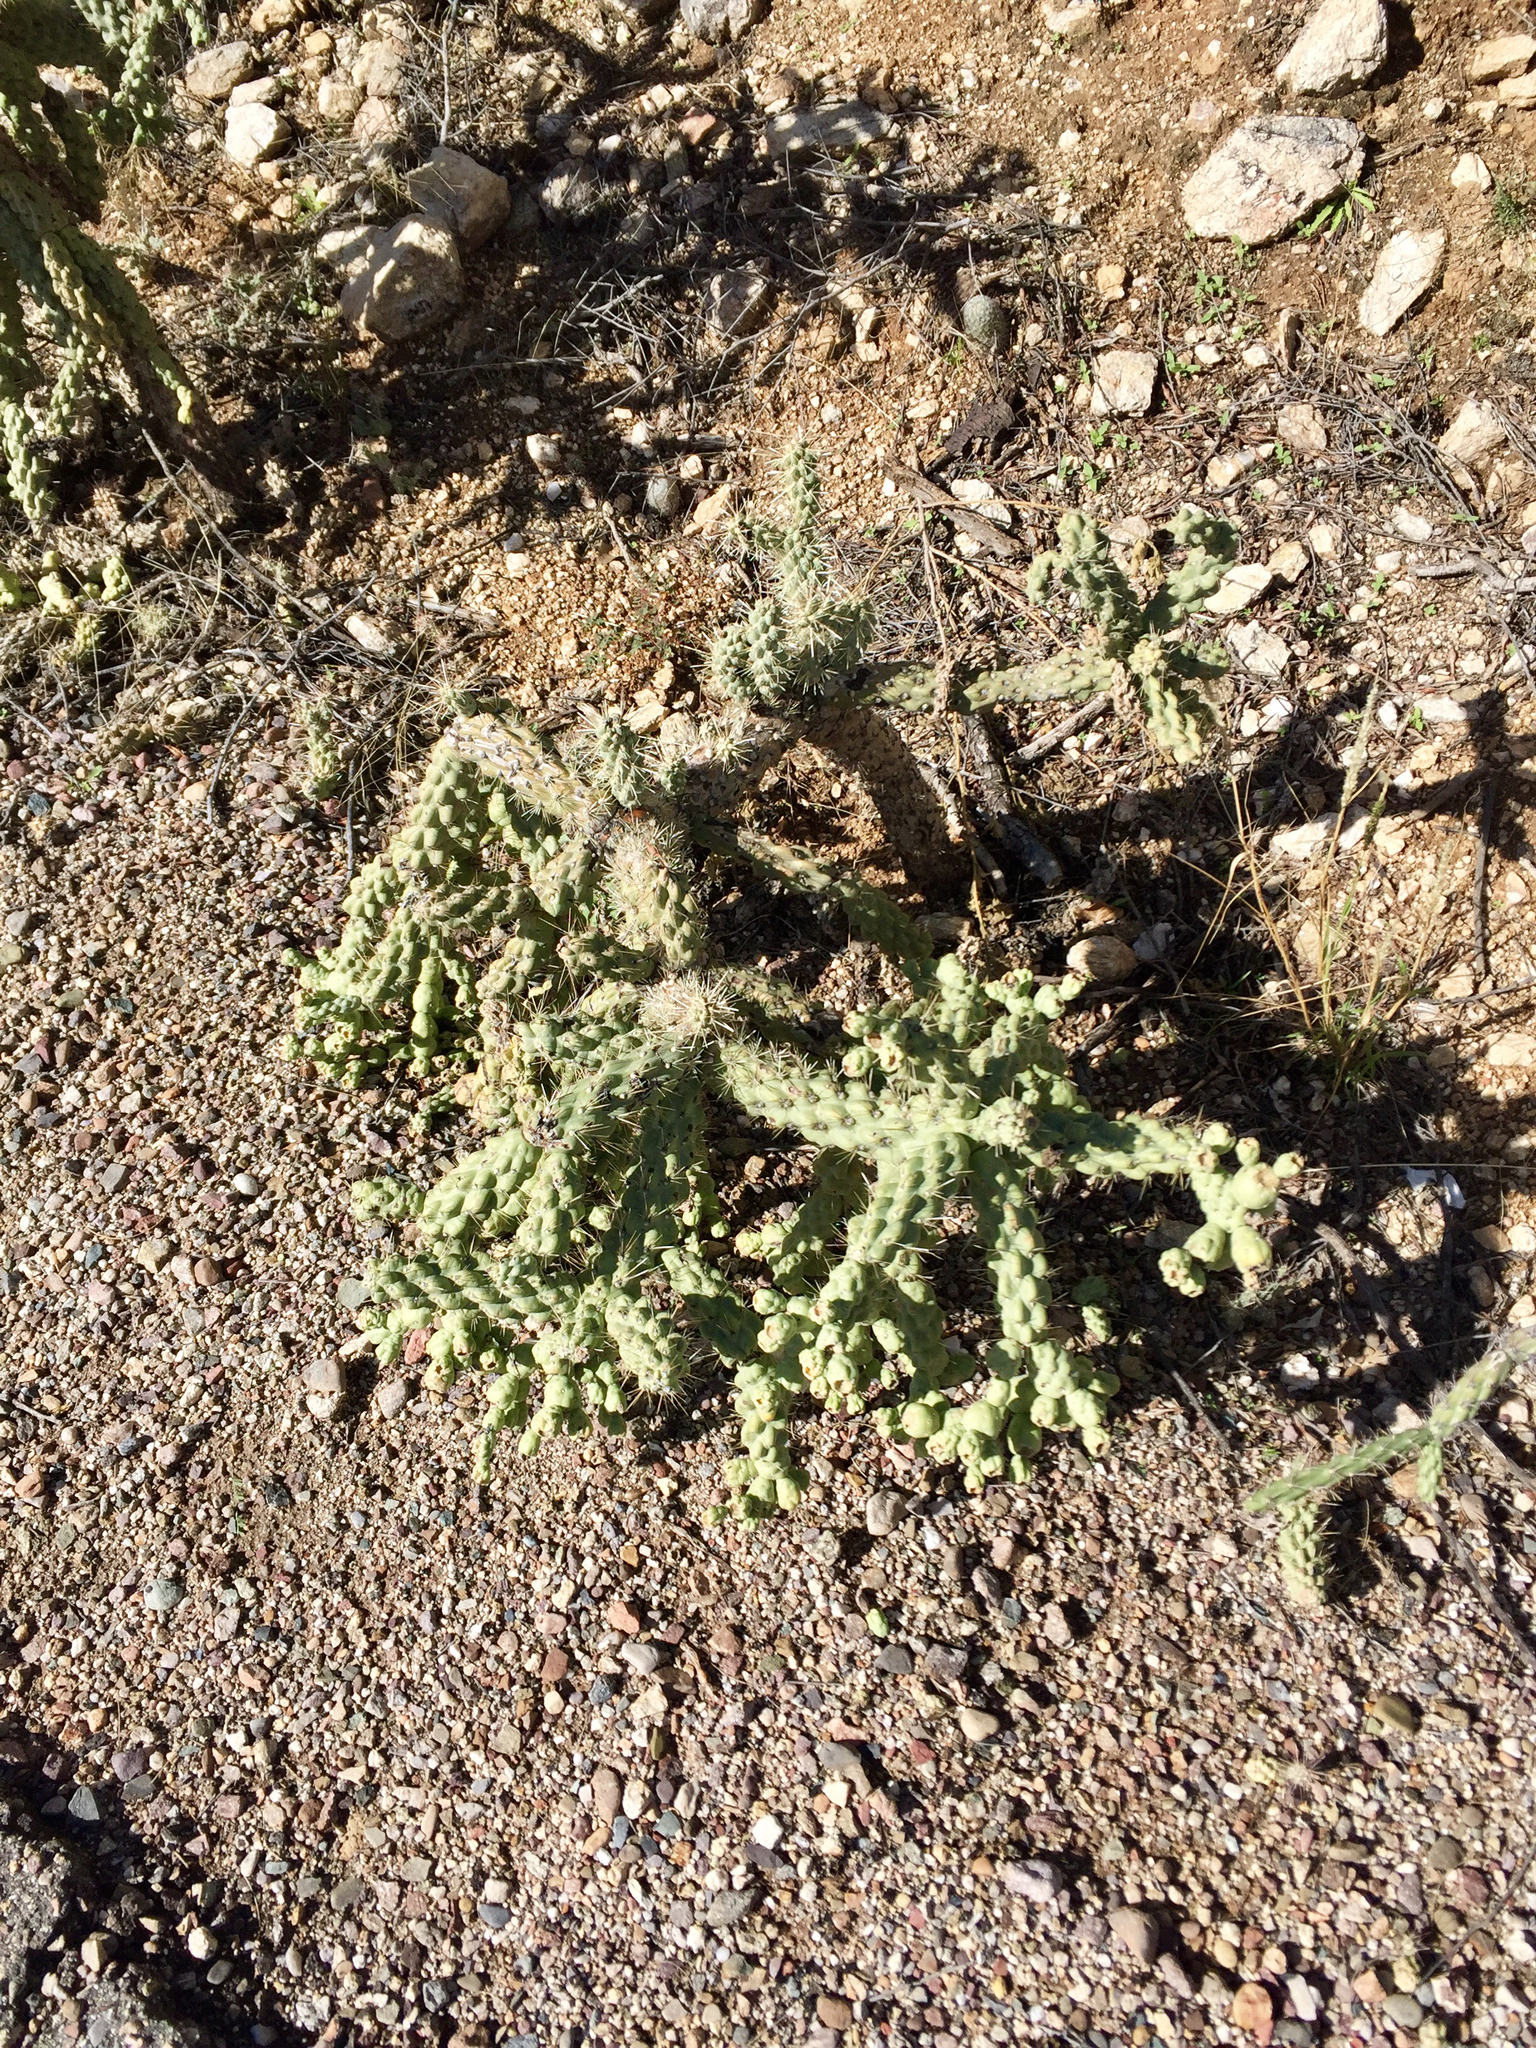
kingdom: Plantae
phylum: Tracheophyta
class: Magnoliopsida
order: Caryophyllales
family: Cactaceae
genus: Cylindropuntia
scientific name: Cylindropuntia fulgida
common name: Jumping cholla
